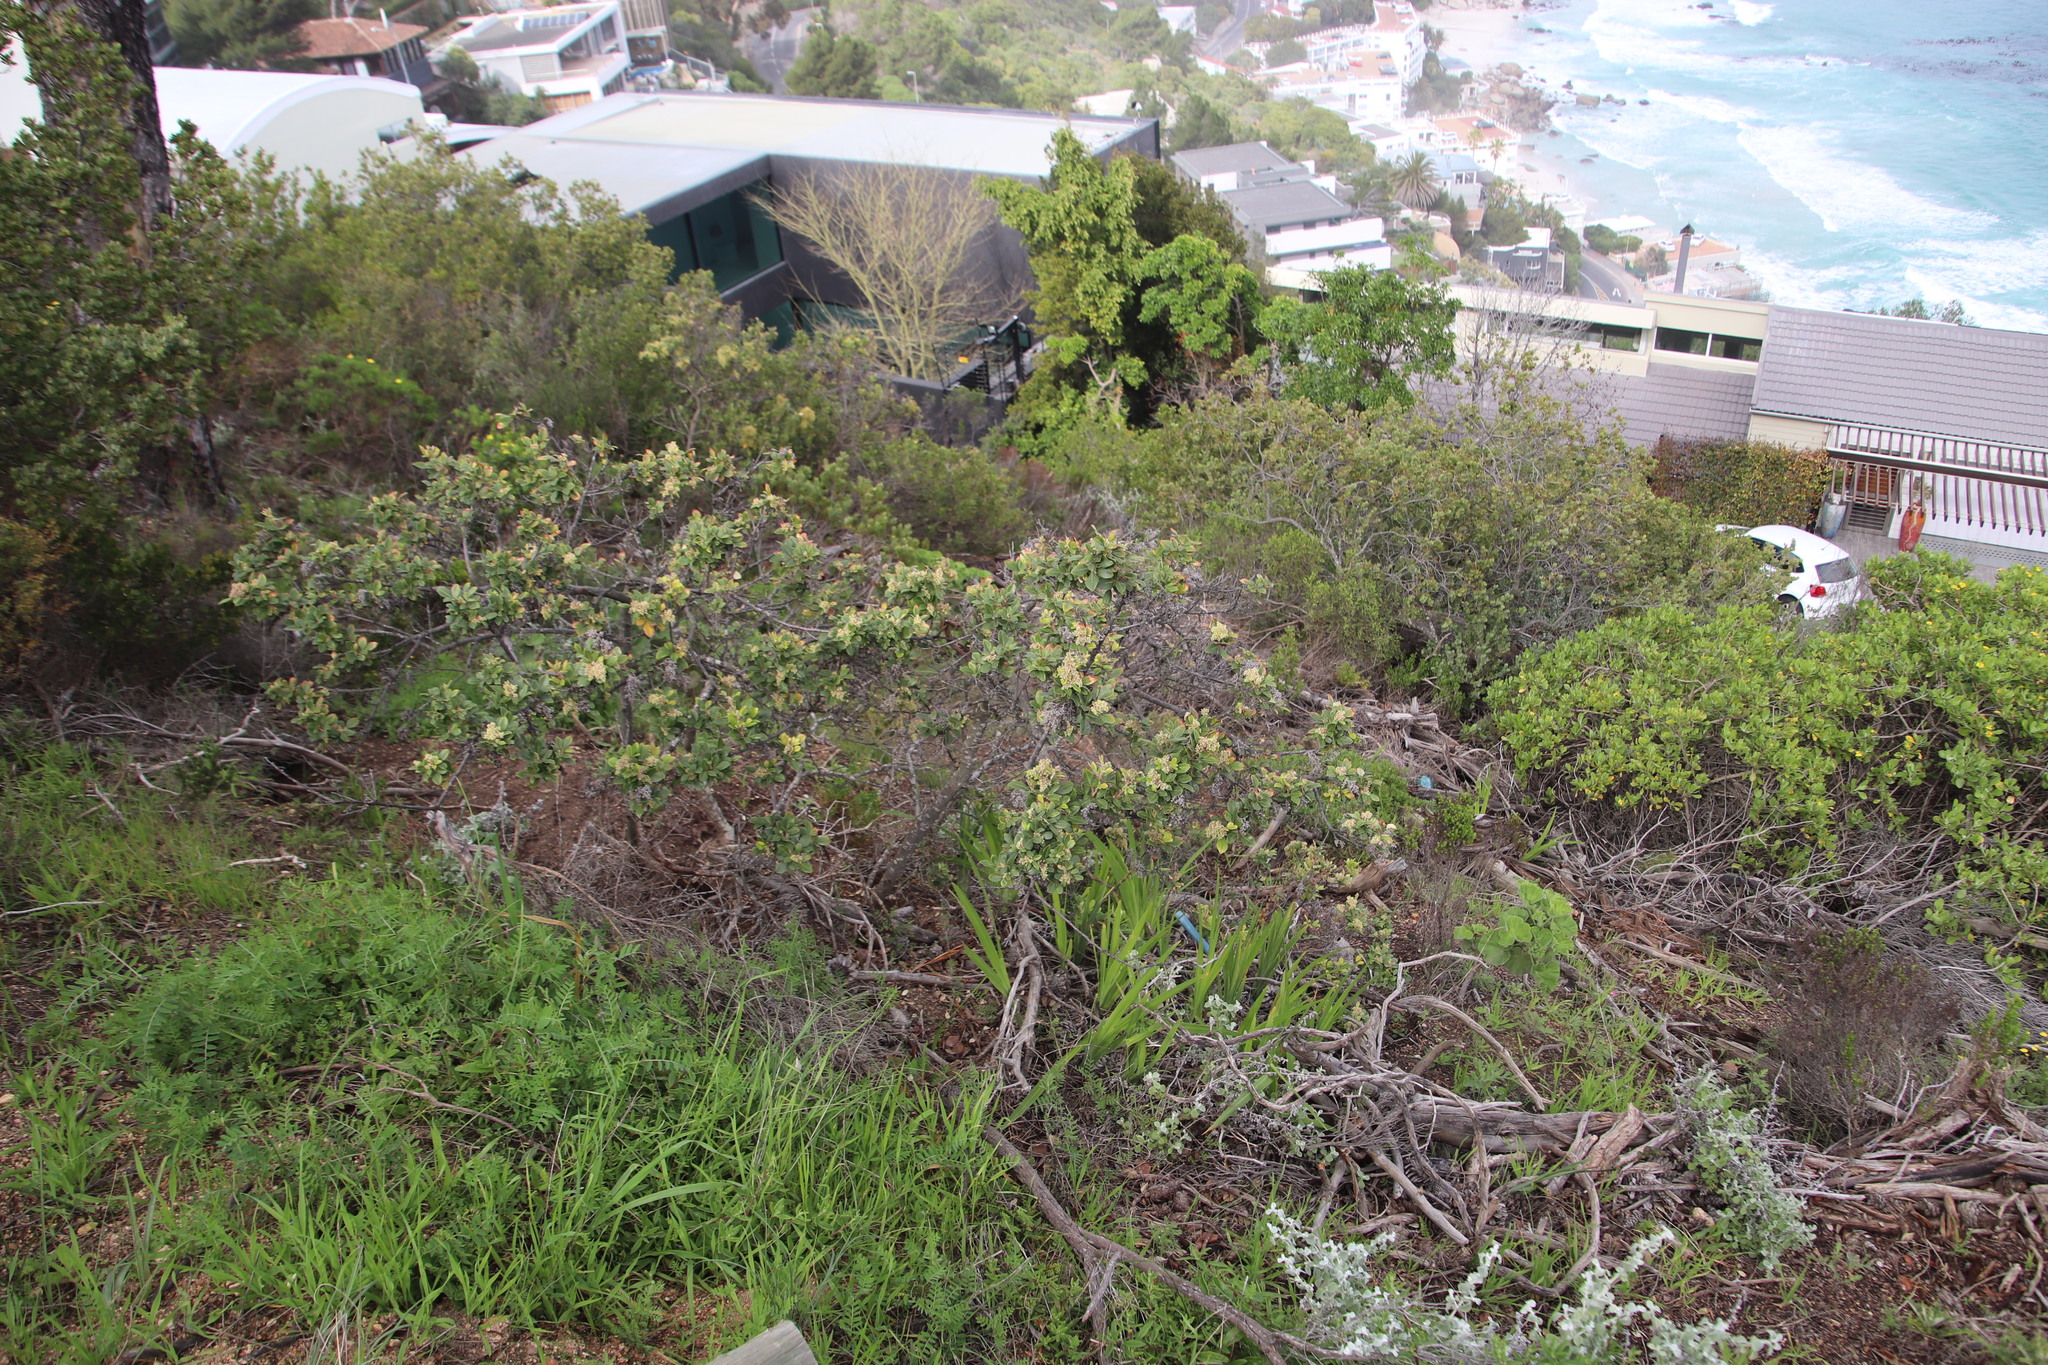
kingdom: Plantae
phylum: Tracheophyta
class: Magnoliopsida
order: Sapindales
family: Anacardiaceae
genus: Searsia
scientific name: Searsia tomentosa
